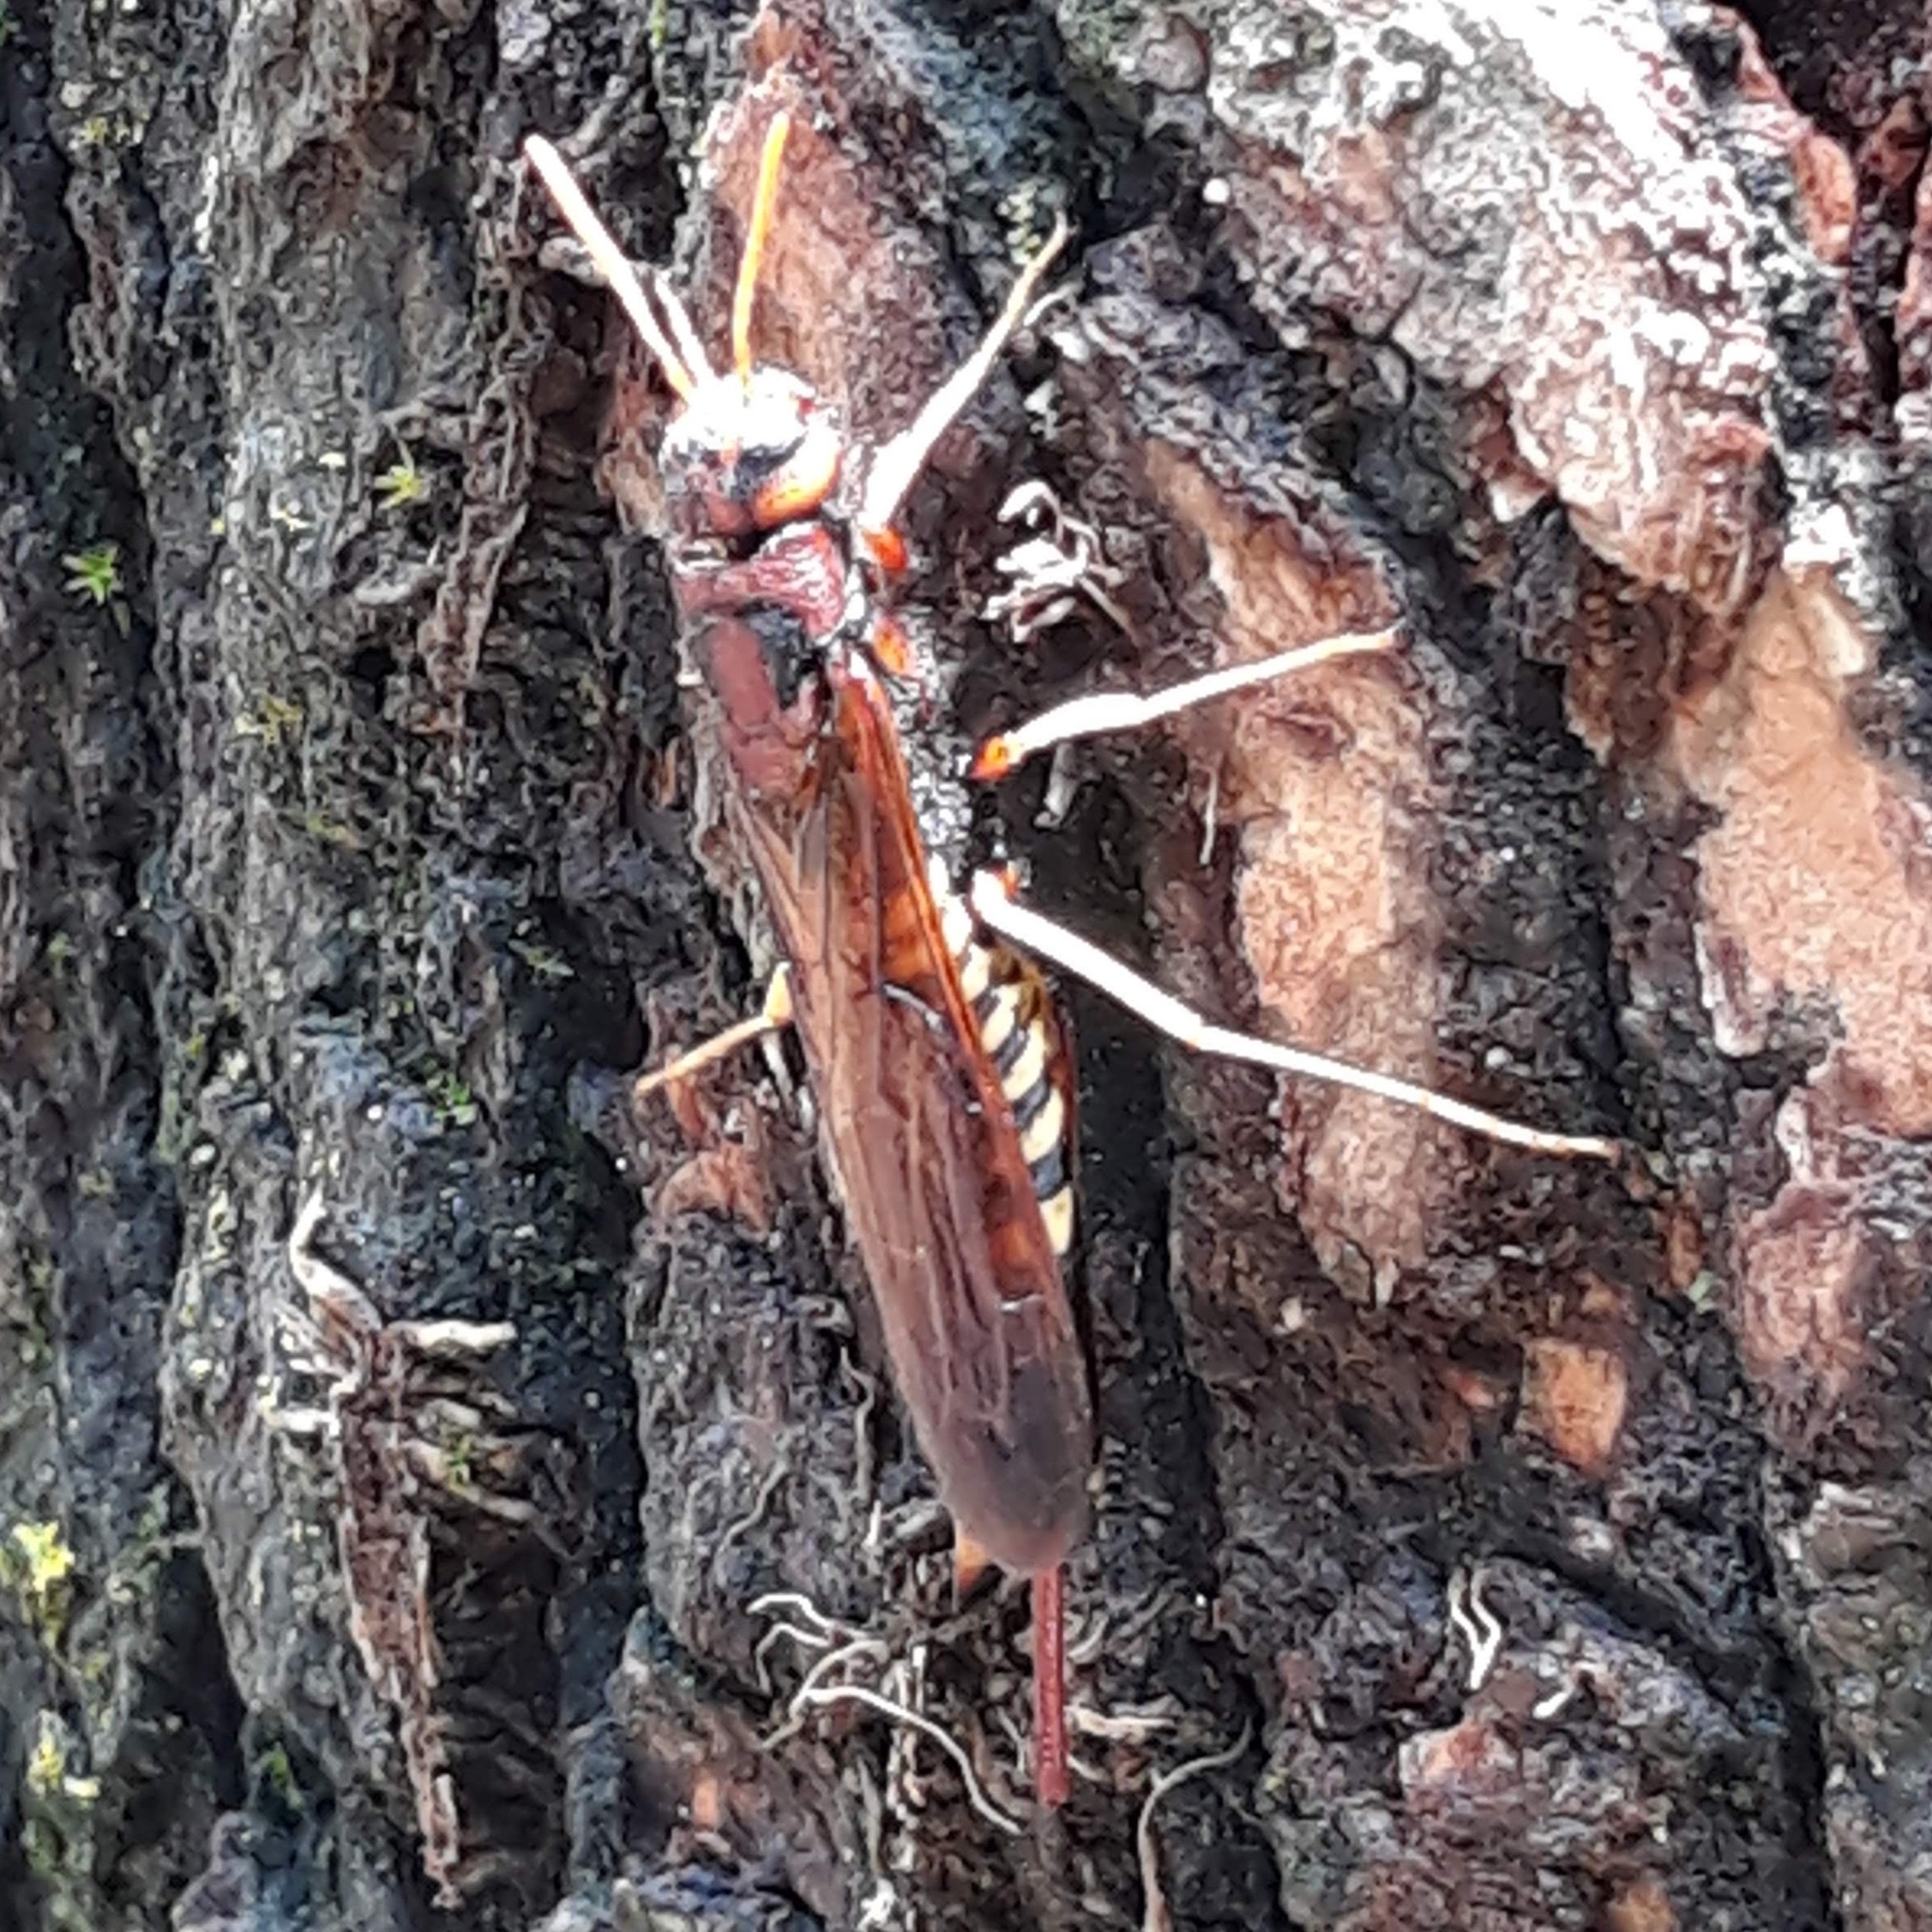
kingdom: Animalia
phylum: Arthropoda
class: Insecta
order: Hymenoptera
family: Siricidae
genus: Tremex
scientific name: Tremex columba
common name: Wasp
